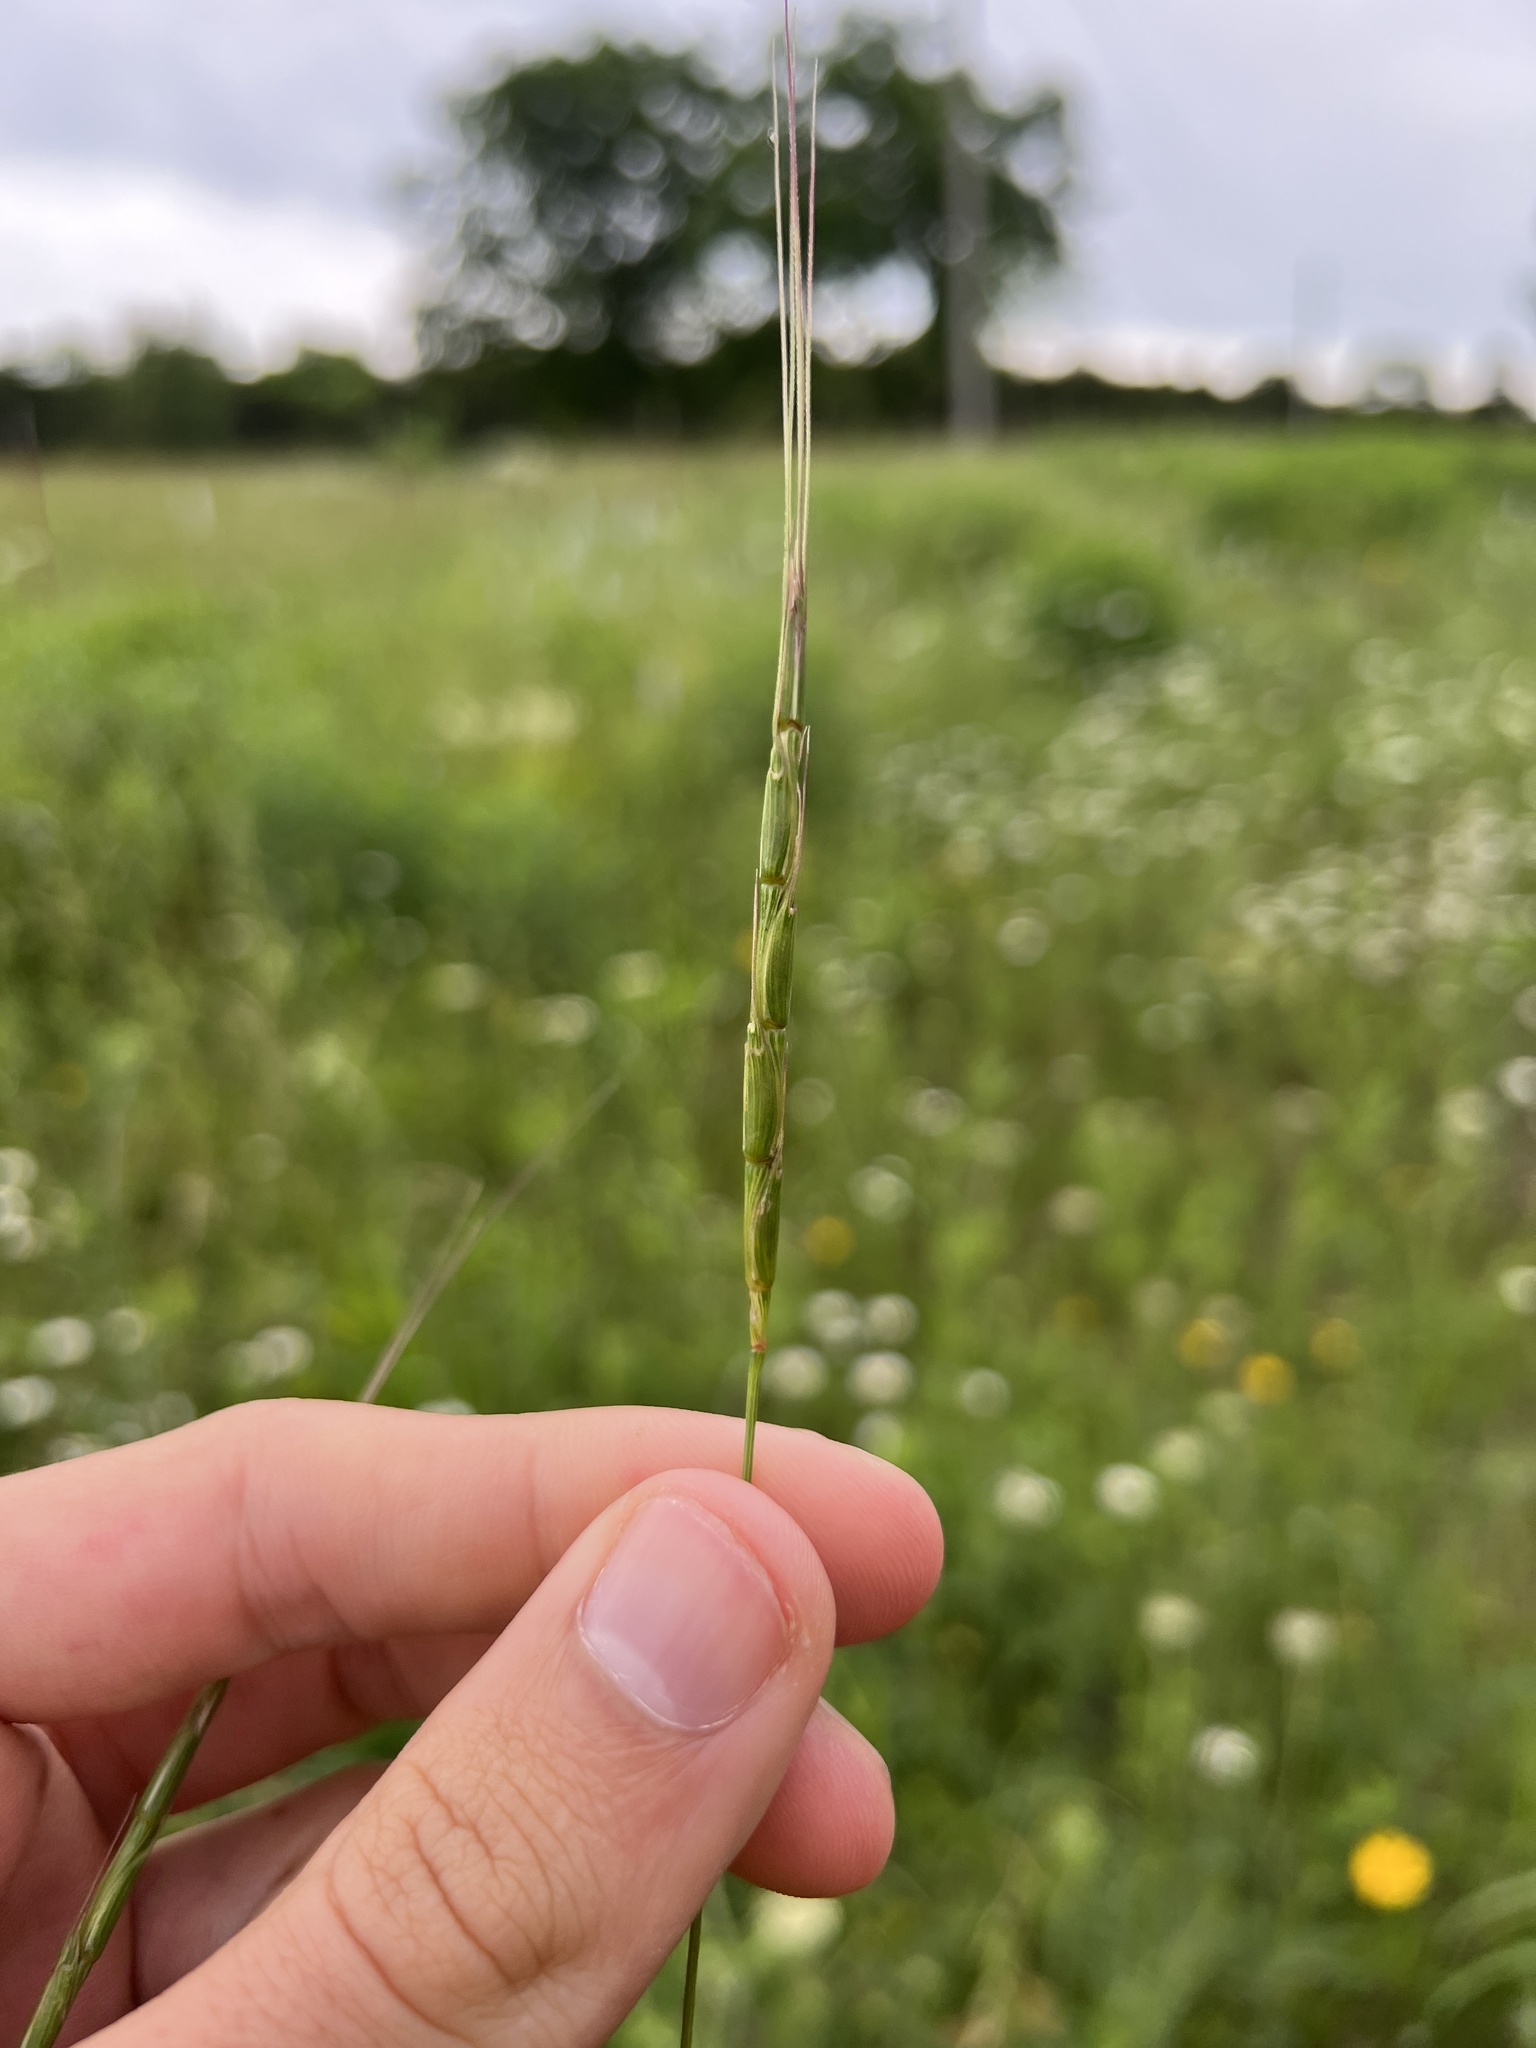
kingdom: Plantae
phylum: Tracheophyta
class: Liliopsida
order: Poales
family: Poaceae
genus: Aegilops
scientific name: Aegilops cylindrica
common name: Jointed goatgrass
